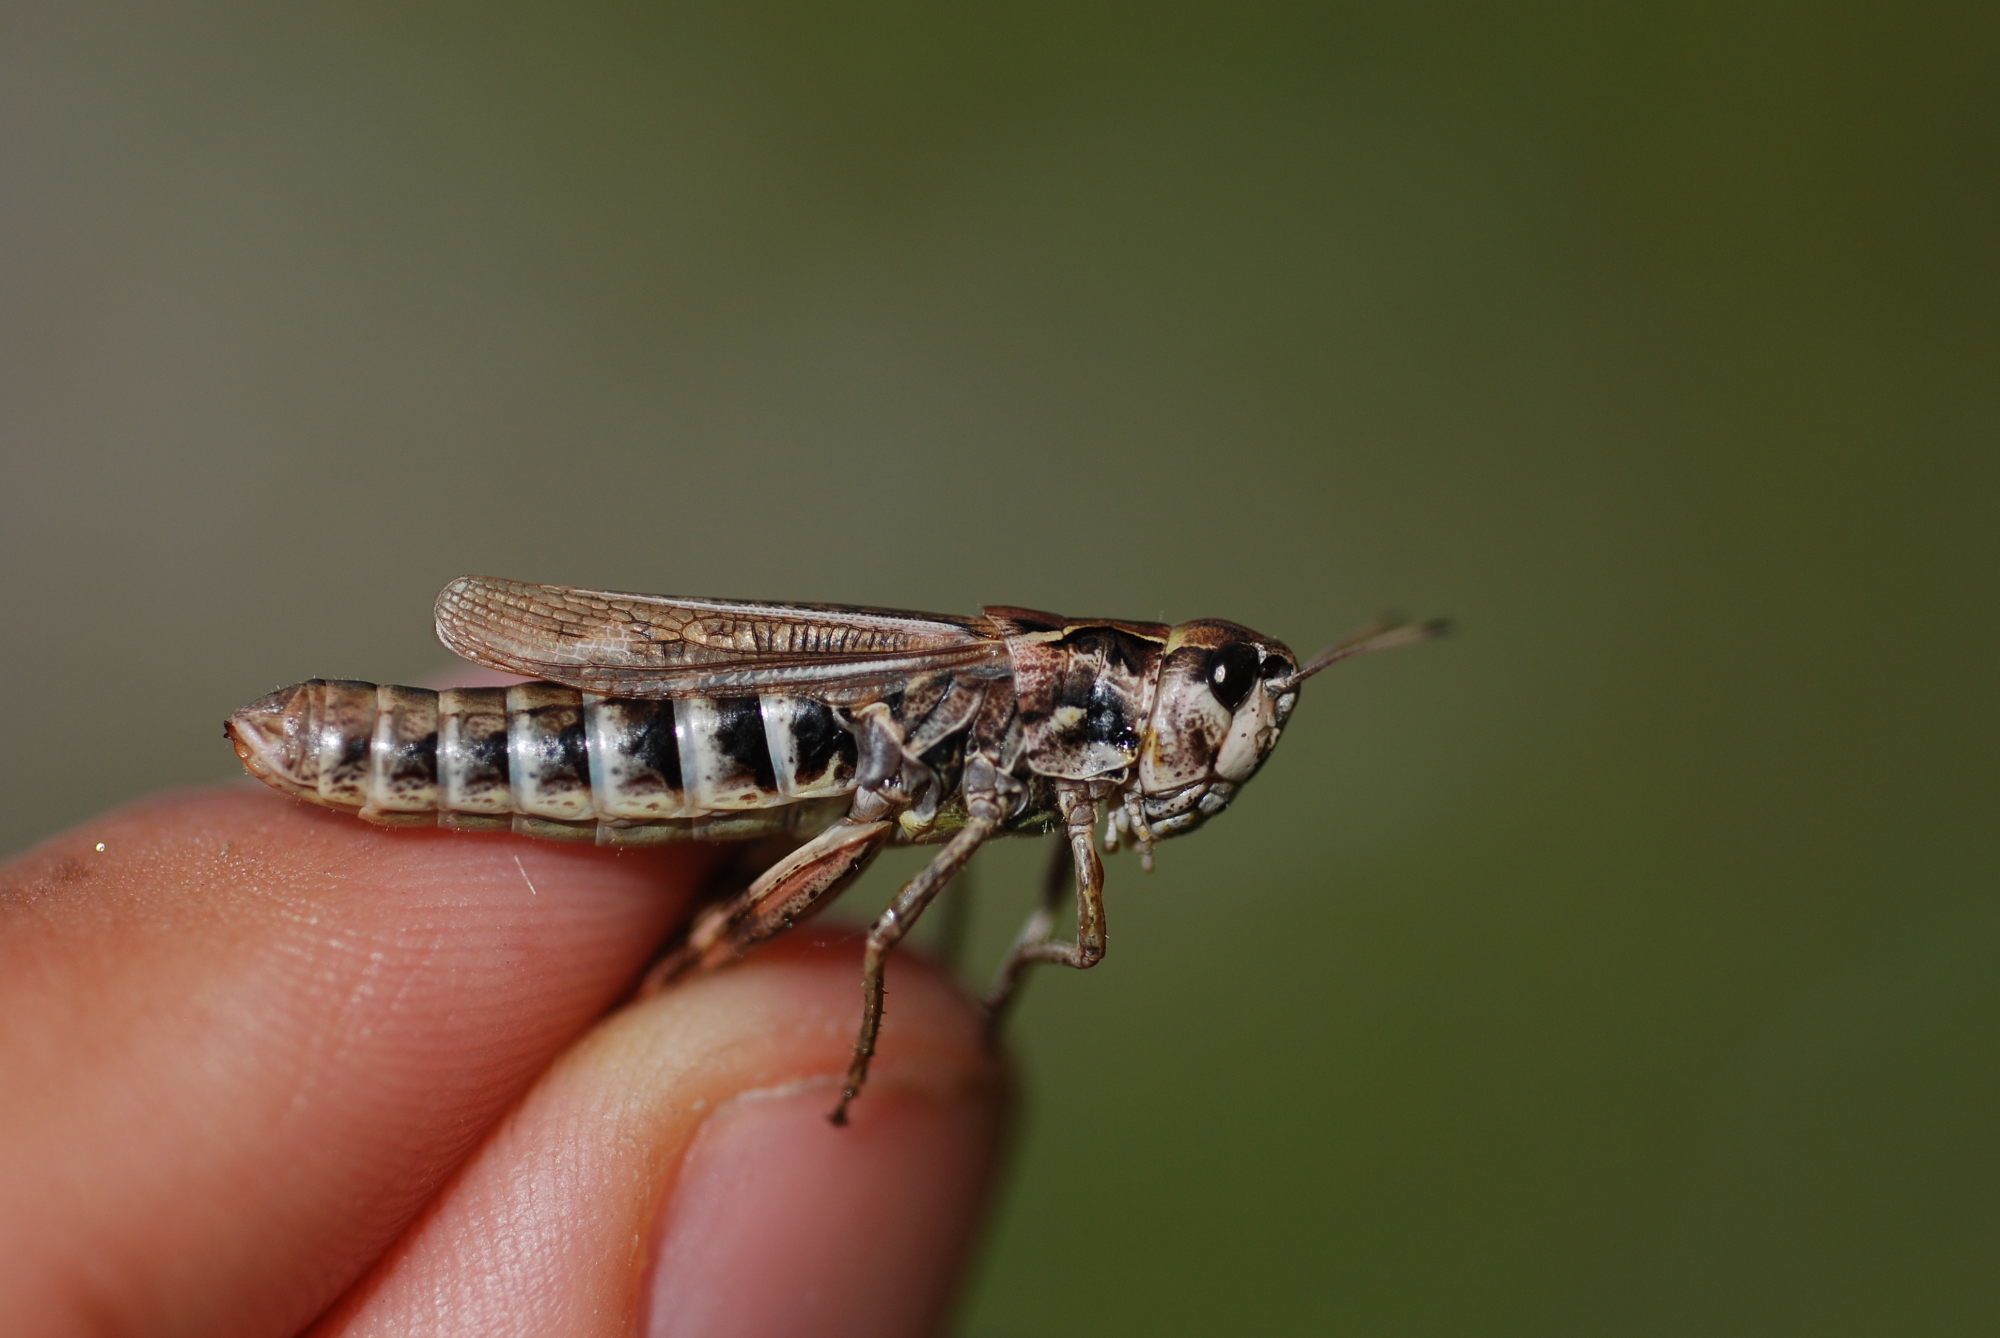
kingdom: Animalia
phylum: Arthropoda
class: Insecta
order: Orthoptera
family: Acrididae
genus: Gomphocerus
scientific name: Gomphocerus sibiricus
